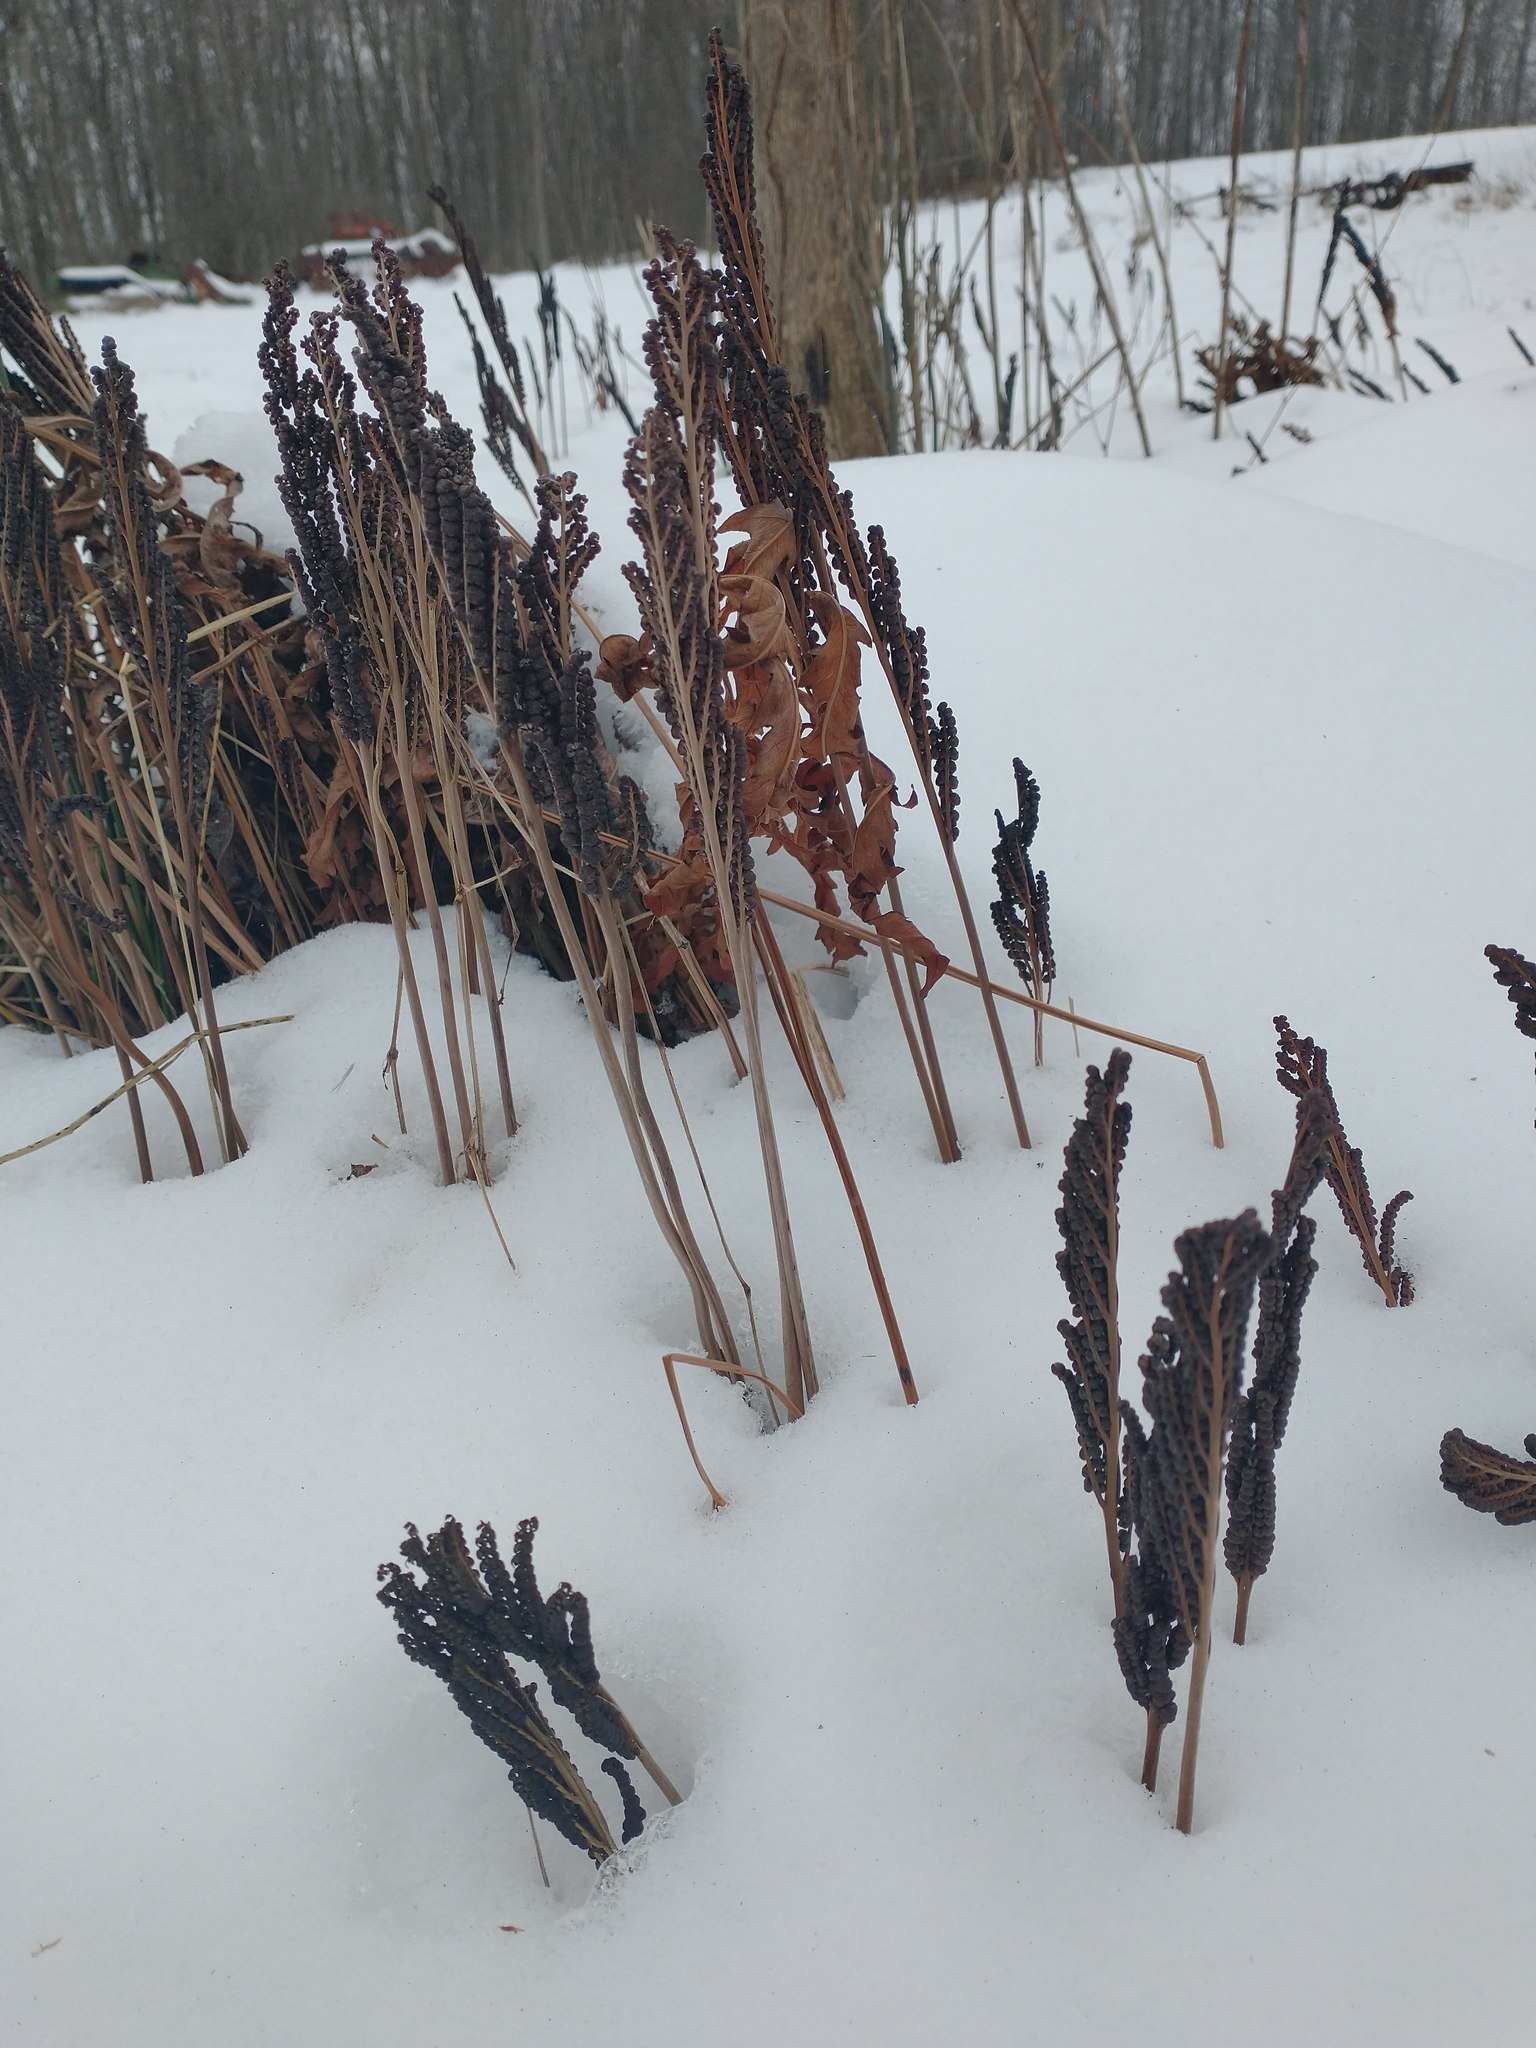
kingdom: Plantae
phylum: Tracheophyta
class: Polypodiopsida
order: Polypodiales
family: Onocleaceae
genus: Onoclea
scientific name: Onoclea sensibilis
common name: Sensitive fern
